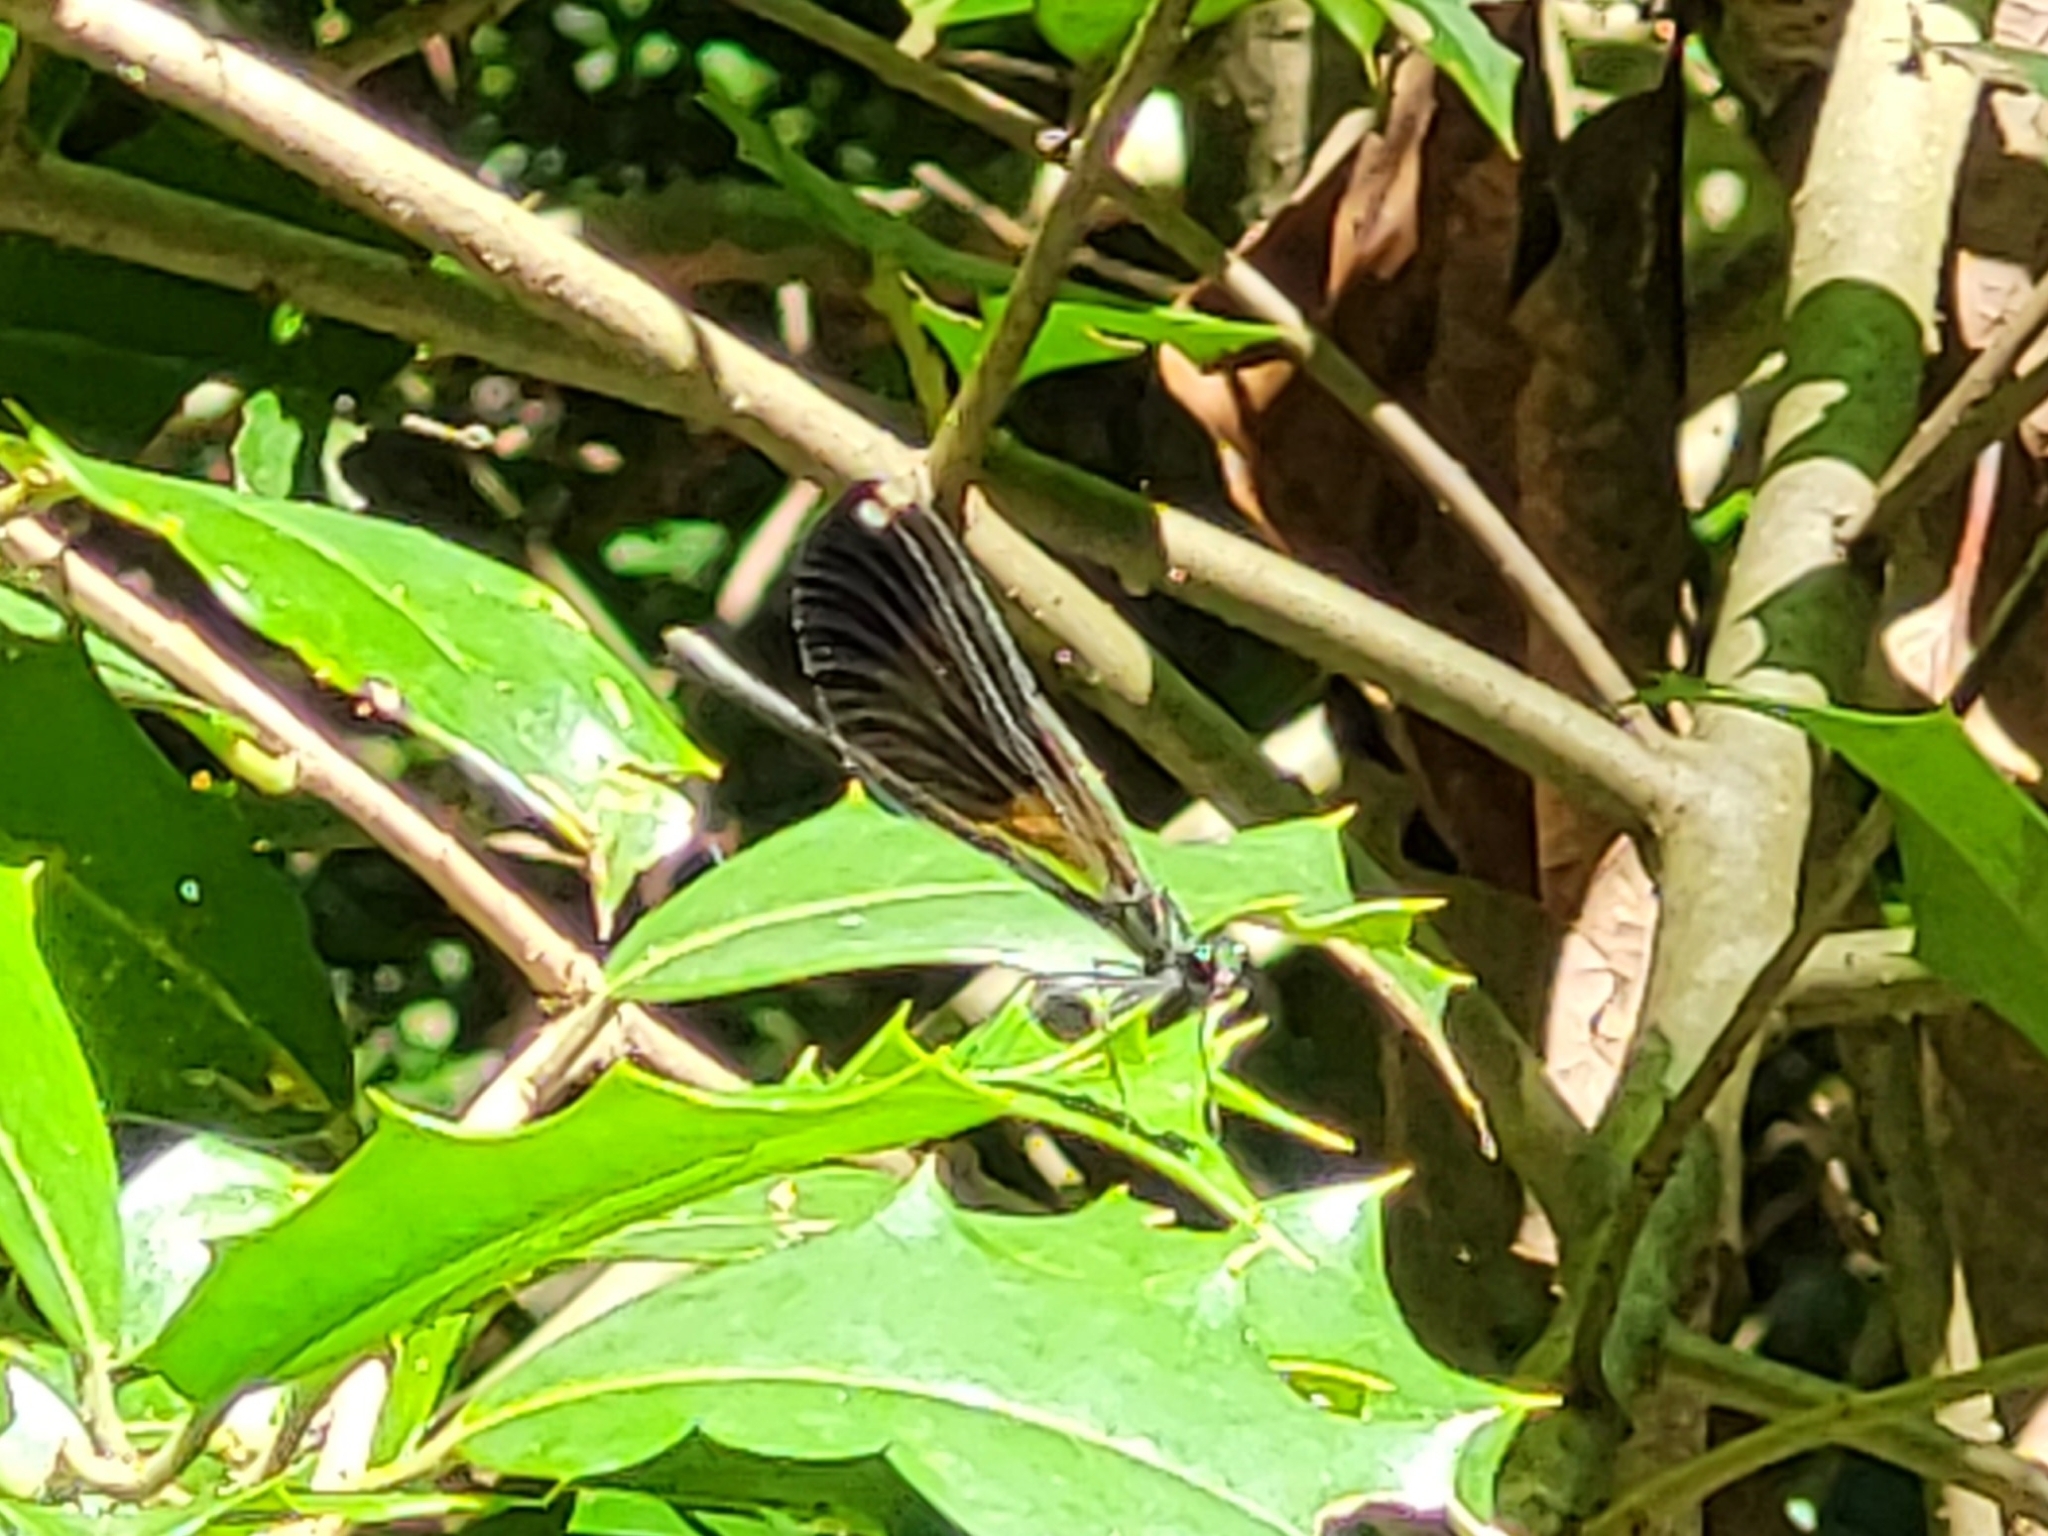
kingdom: Animalia
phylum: Arthropoda
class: Insecta
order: Odonata
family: Calopterygidae
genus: Calopteryx
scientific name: Calopteryx maculata
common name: Ebony jewelwing
